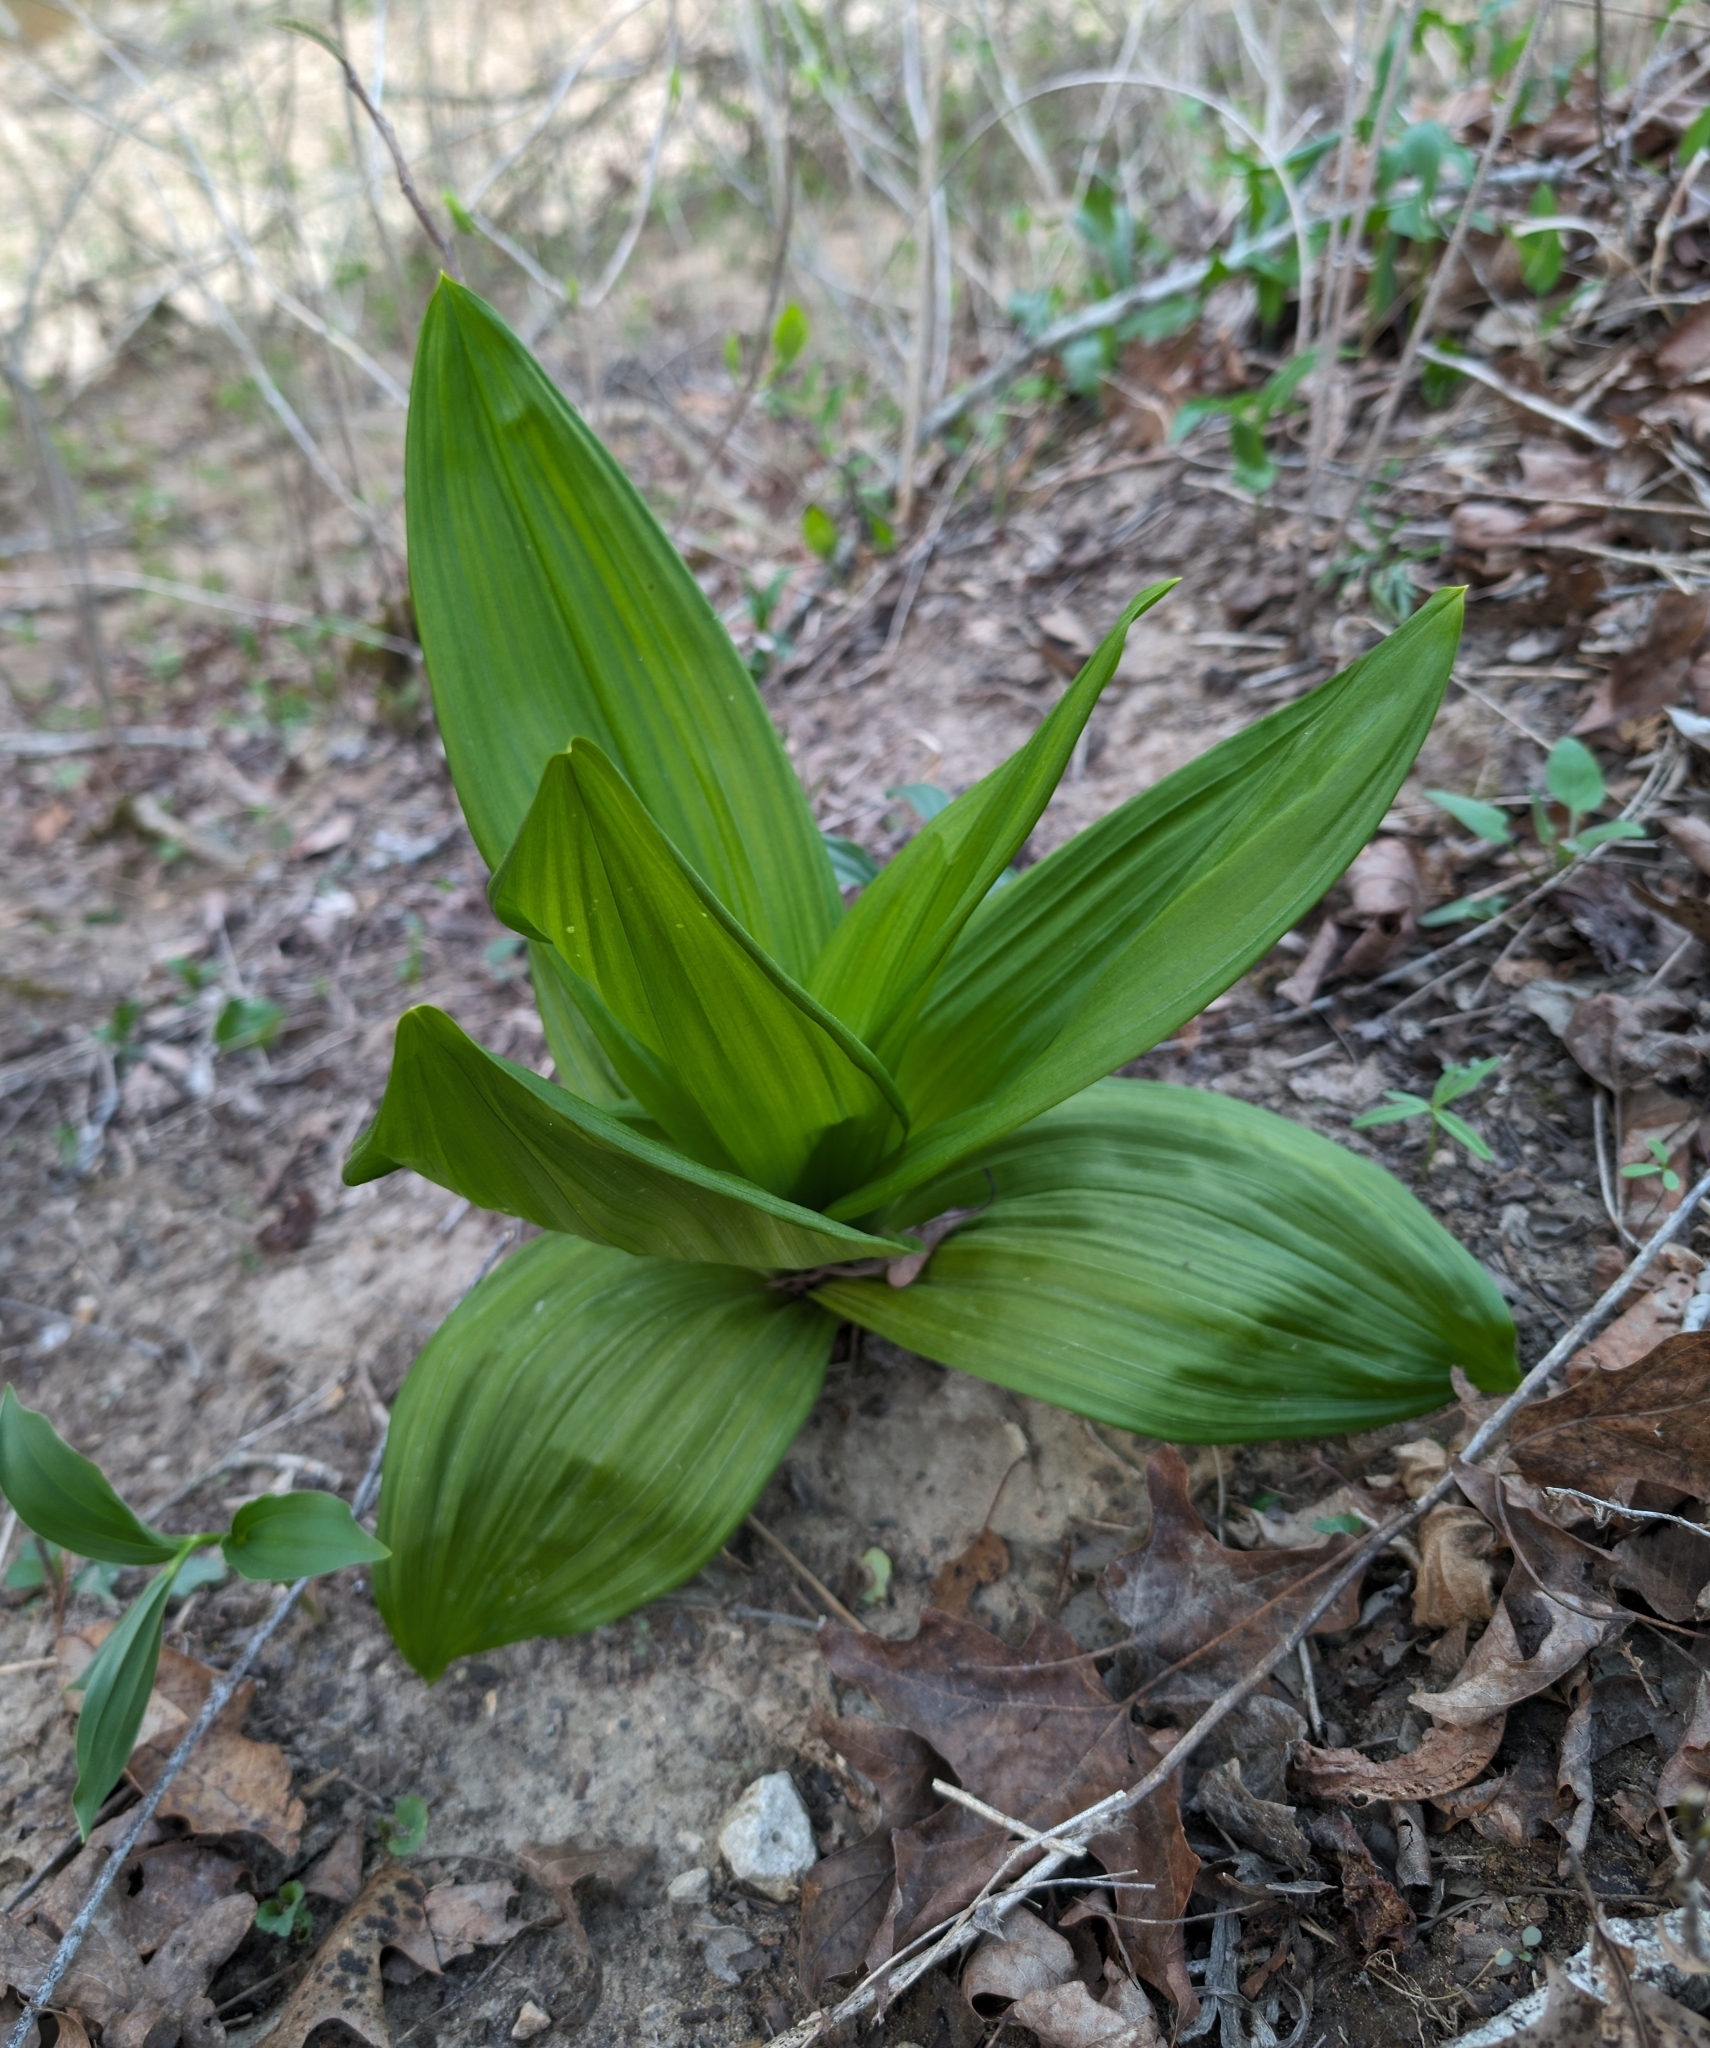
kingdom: Plantae
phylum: Tracheophyta
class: Liliopsida
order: Liliales
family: Melanthiaceae
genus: Veratrum
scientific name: Veratrum woodii
